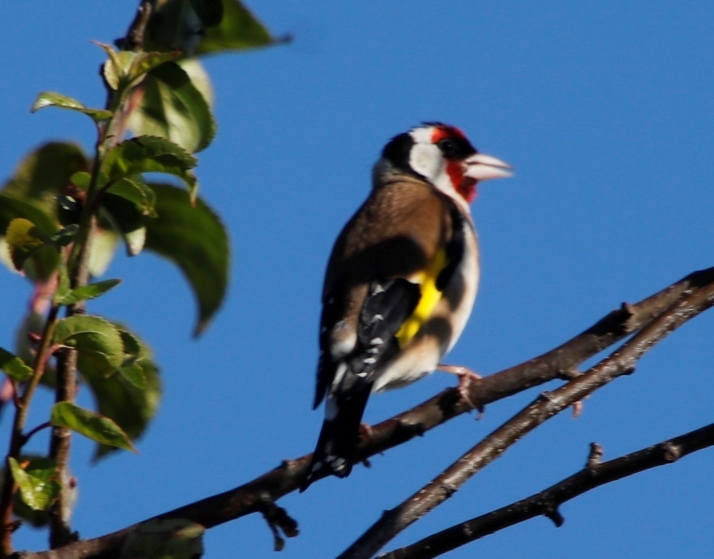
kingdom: Animalia
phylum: Chordata
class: Aves
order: Passeriformes
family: Fringillidae
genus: Carduelis
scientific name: Carduelis carduelis
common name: European goldfinch
